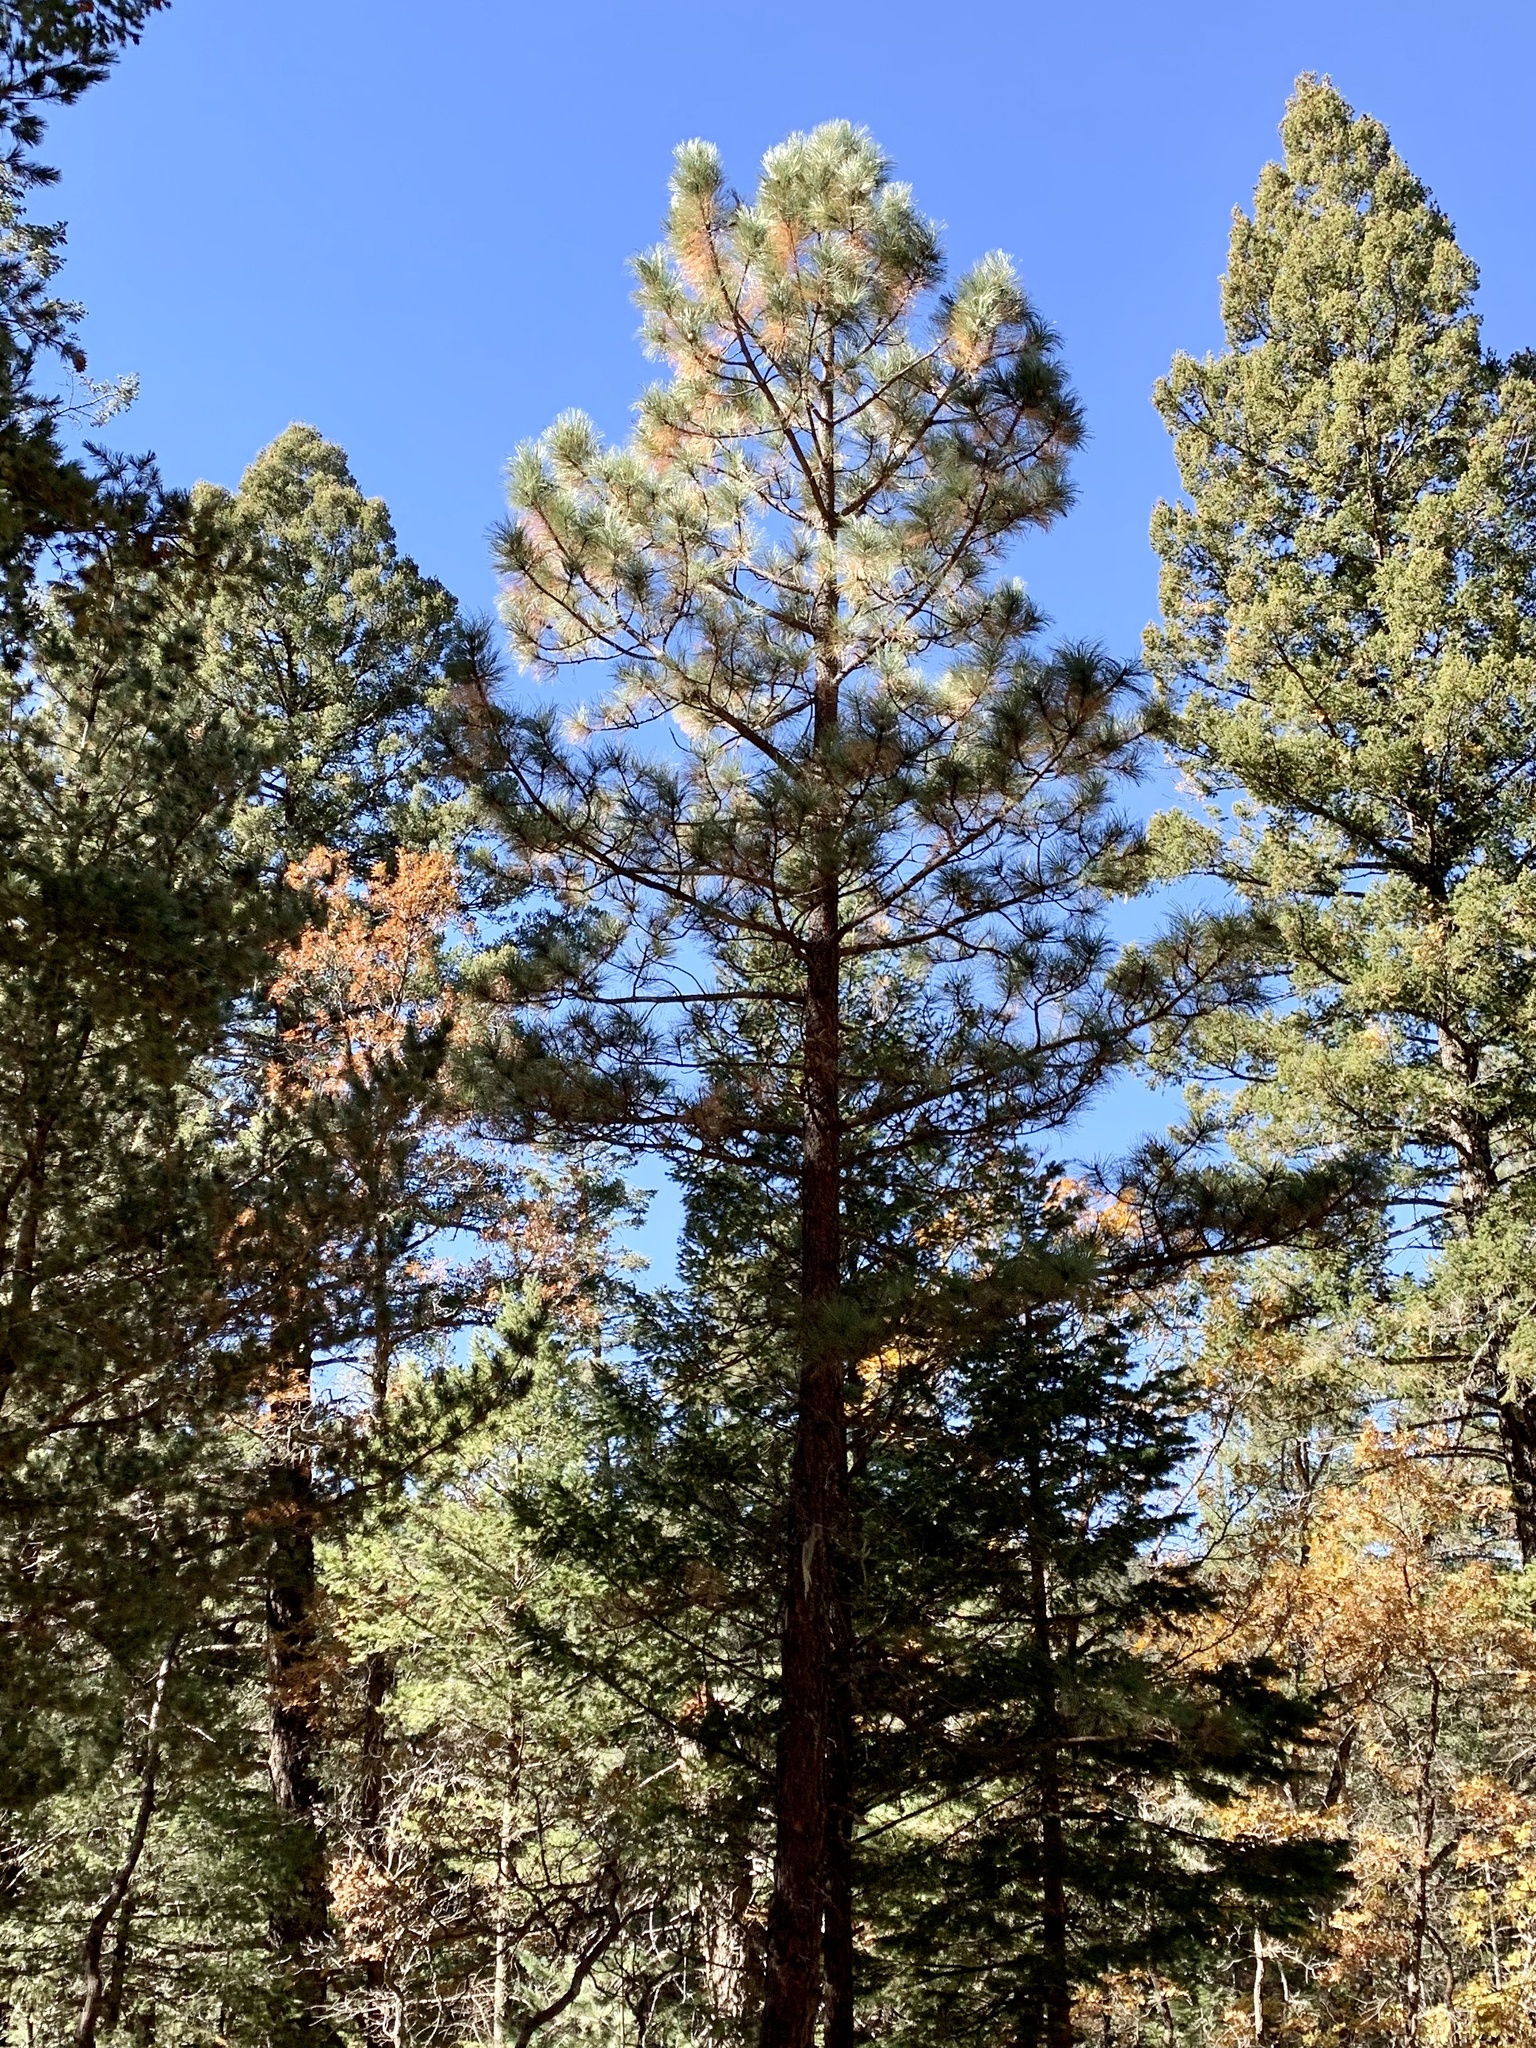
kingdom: Plantae
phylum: Tracheophyta
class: Pinopsida
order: Pinales
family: Pinaceae
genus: Pinus
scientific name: Pinus ponderosa
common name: Western yellow-pine
